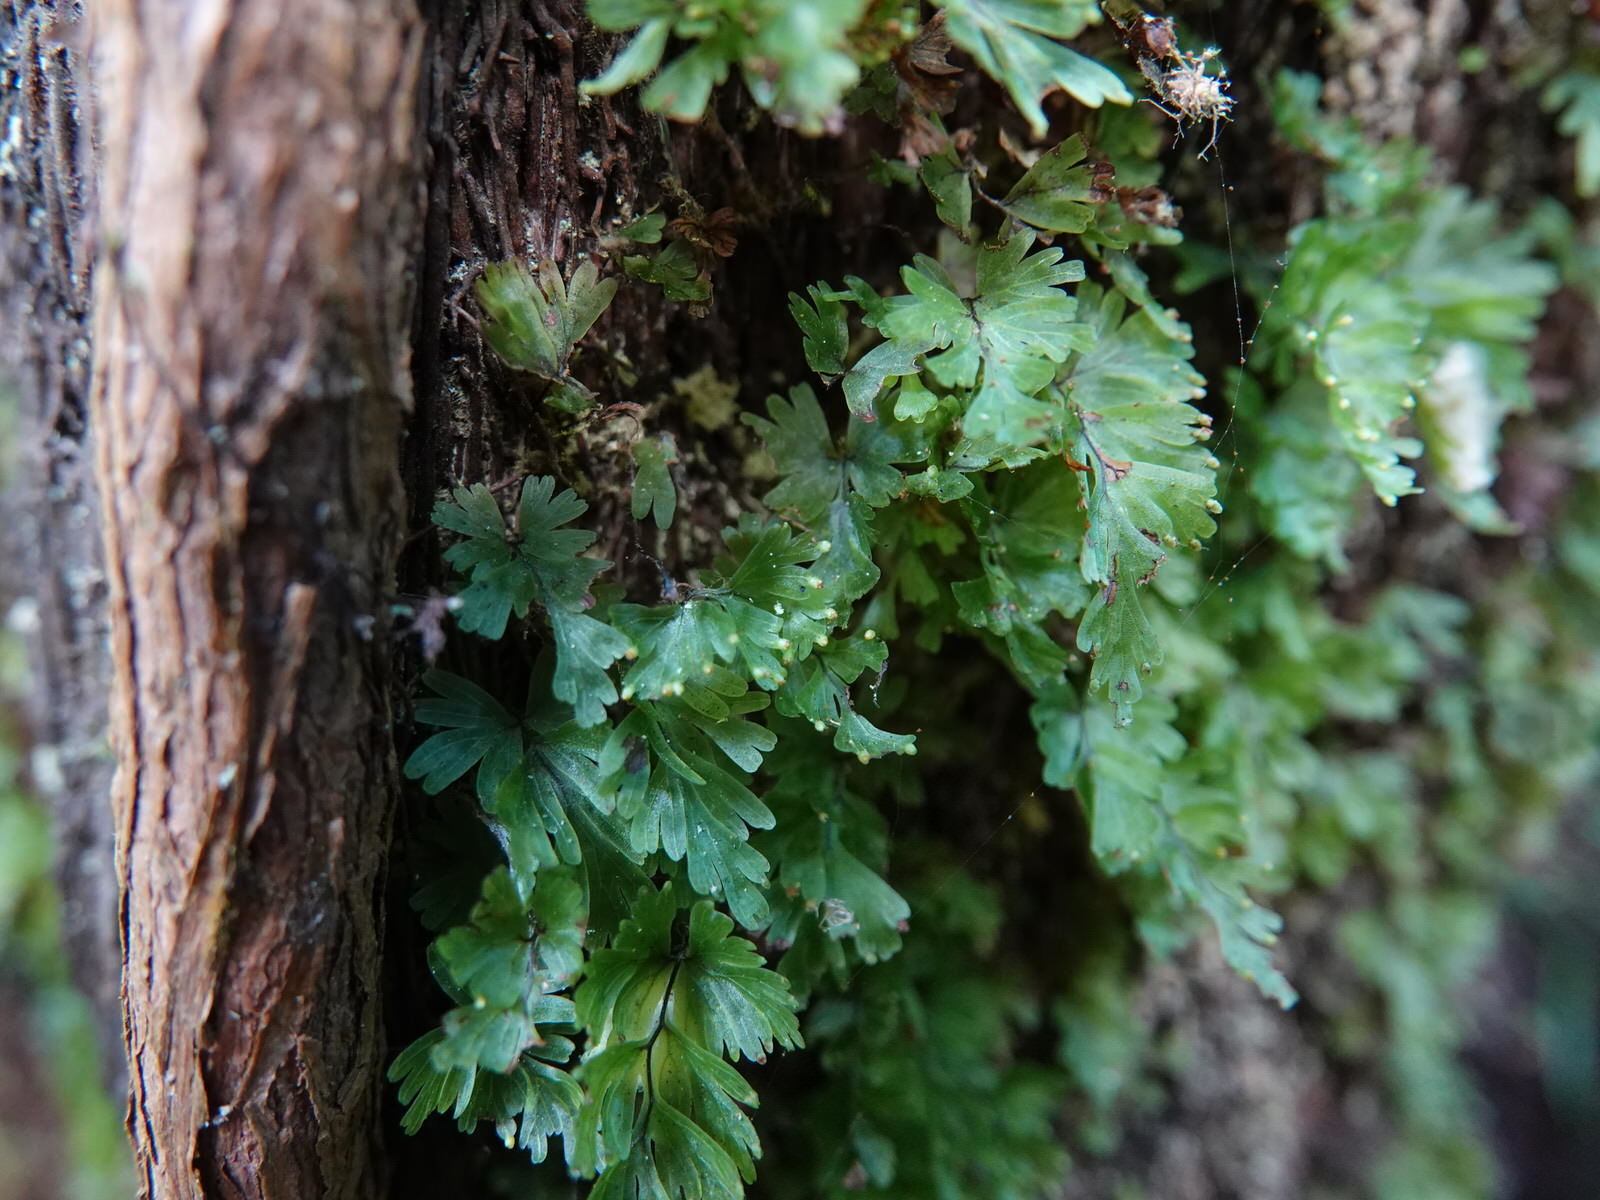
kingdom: Plantae
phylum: Tracheophyta
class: Polypodiopsida
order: Hymenophyllales
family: Hymenophyllaceae
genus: Hymenophyllum
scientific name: Hymenophyllum flabellatum
